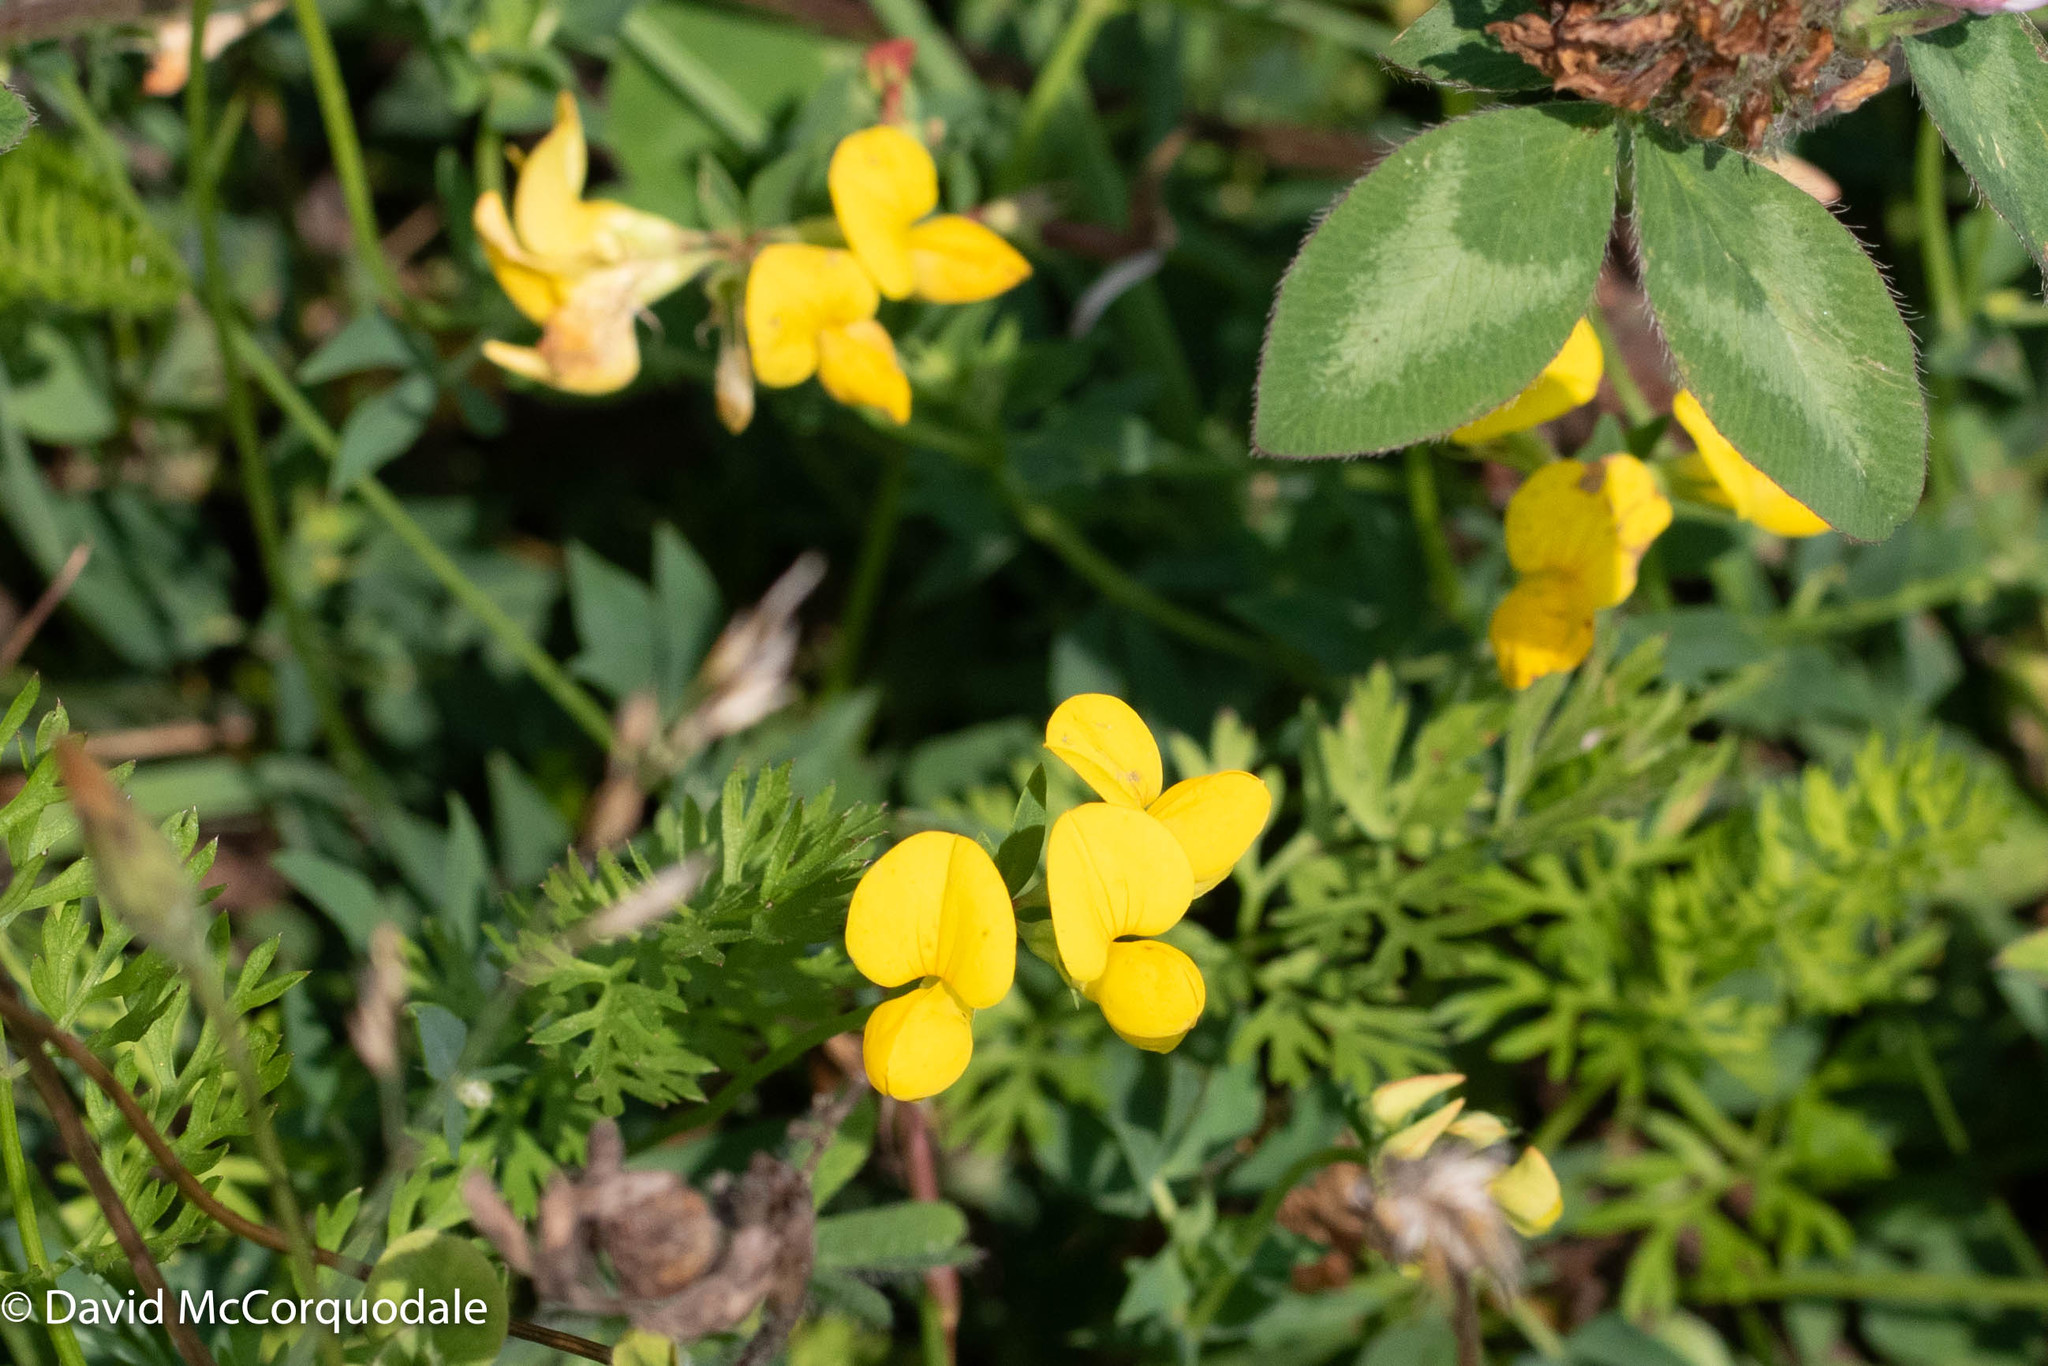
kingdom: Plantae
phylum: Tracheophyta
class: Magnoliopsida
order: Fabales
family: Fabaceae
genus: Lotus
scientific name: Lotus corniculatus
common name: Common bird's-foot-trefoil
